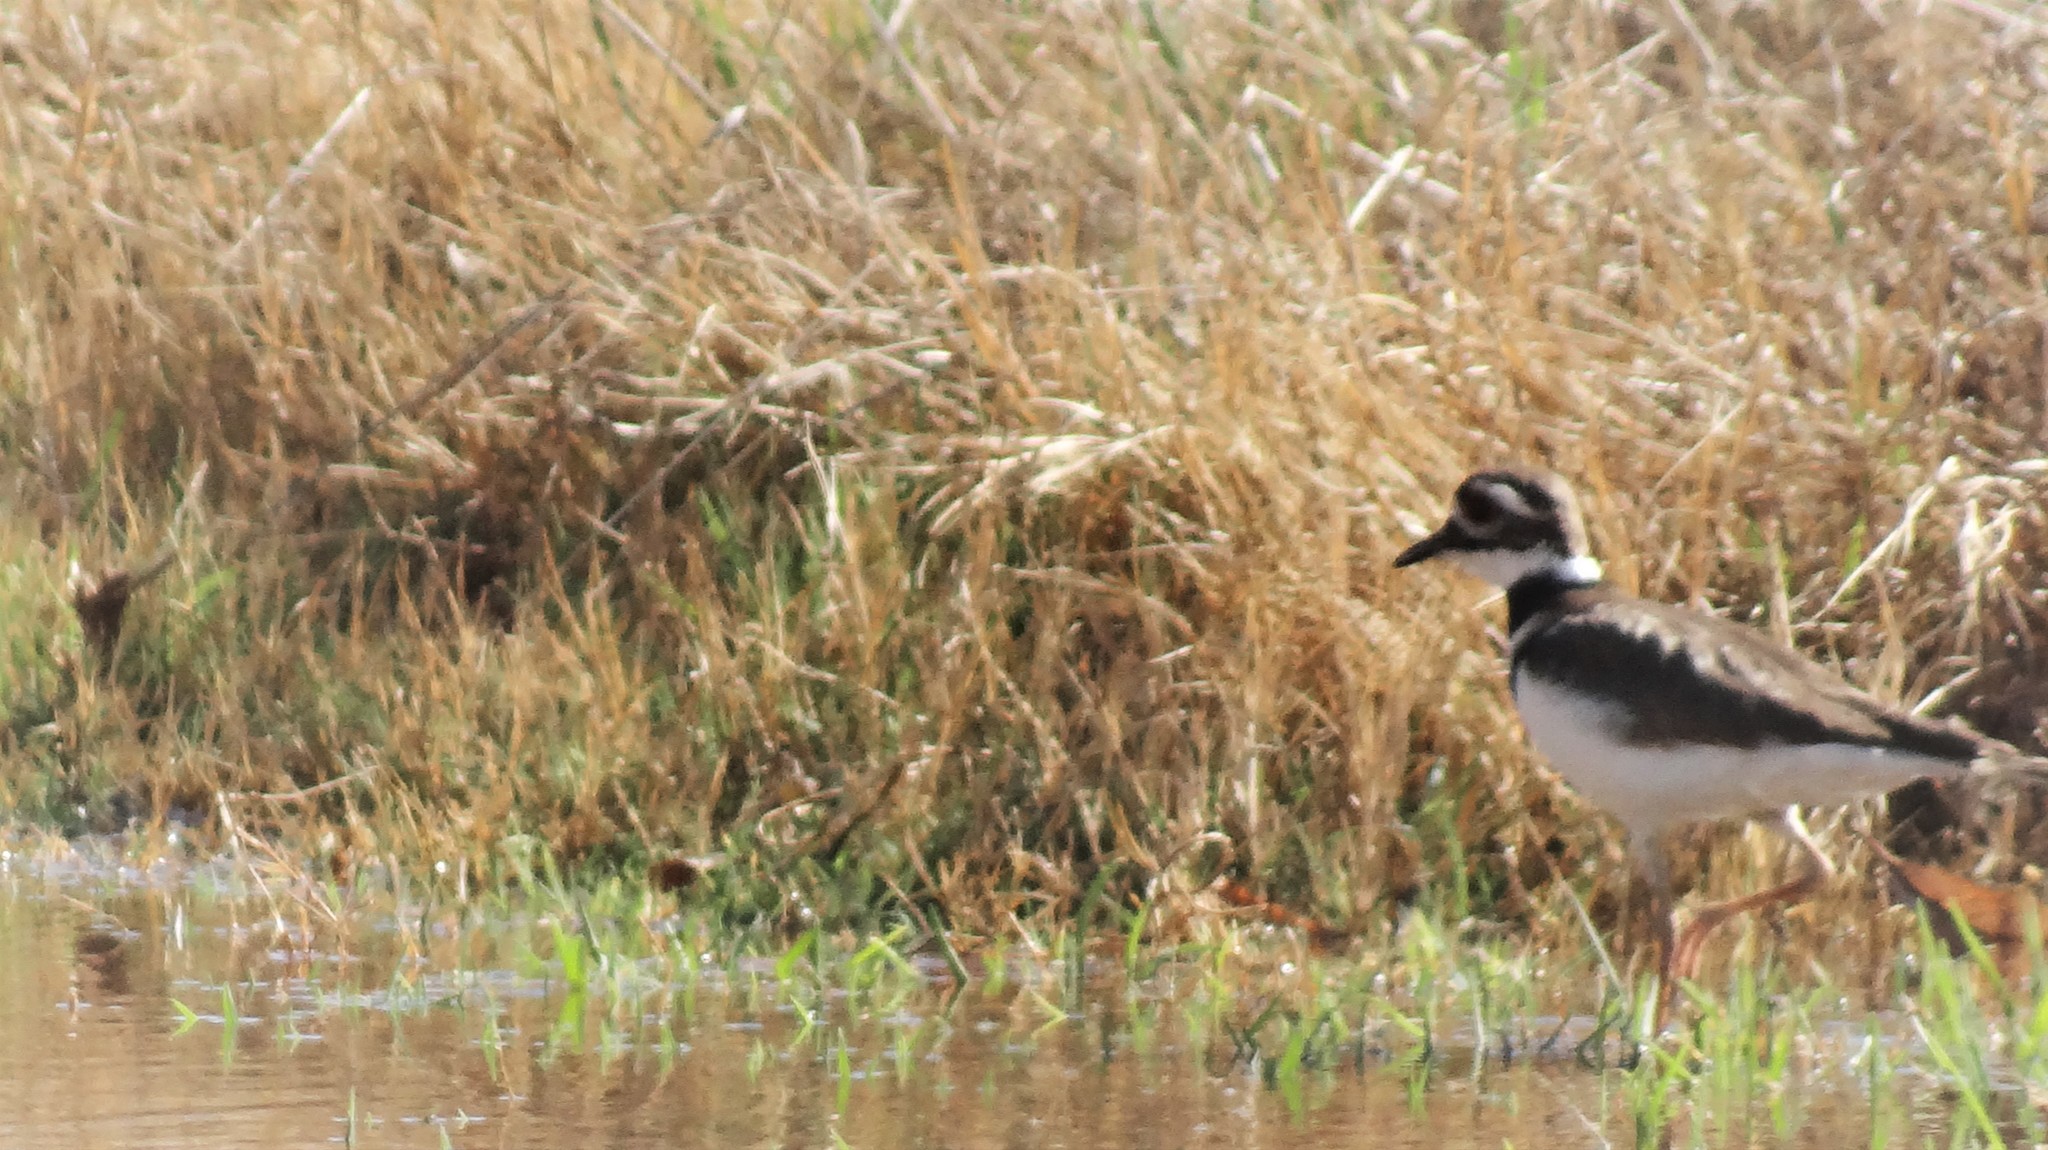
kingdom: Animalia
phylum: Chordata
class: Aves
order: Charadriiformes
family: Charadriidae
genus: Charadrius
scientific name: Charadrius vociferus
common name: Killdeer
